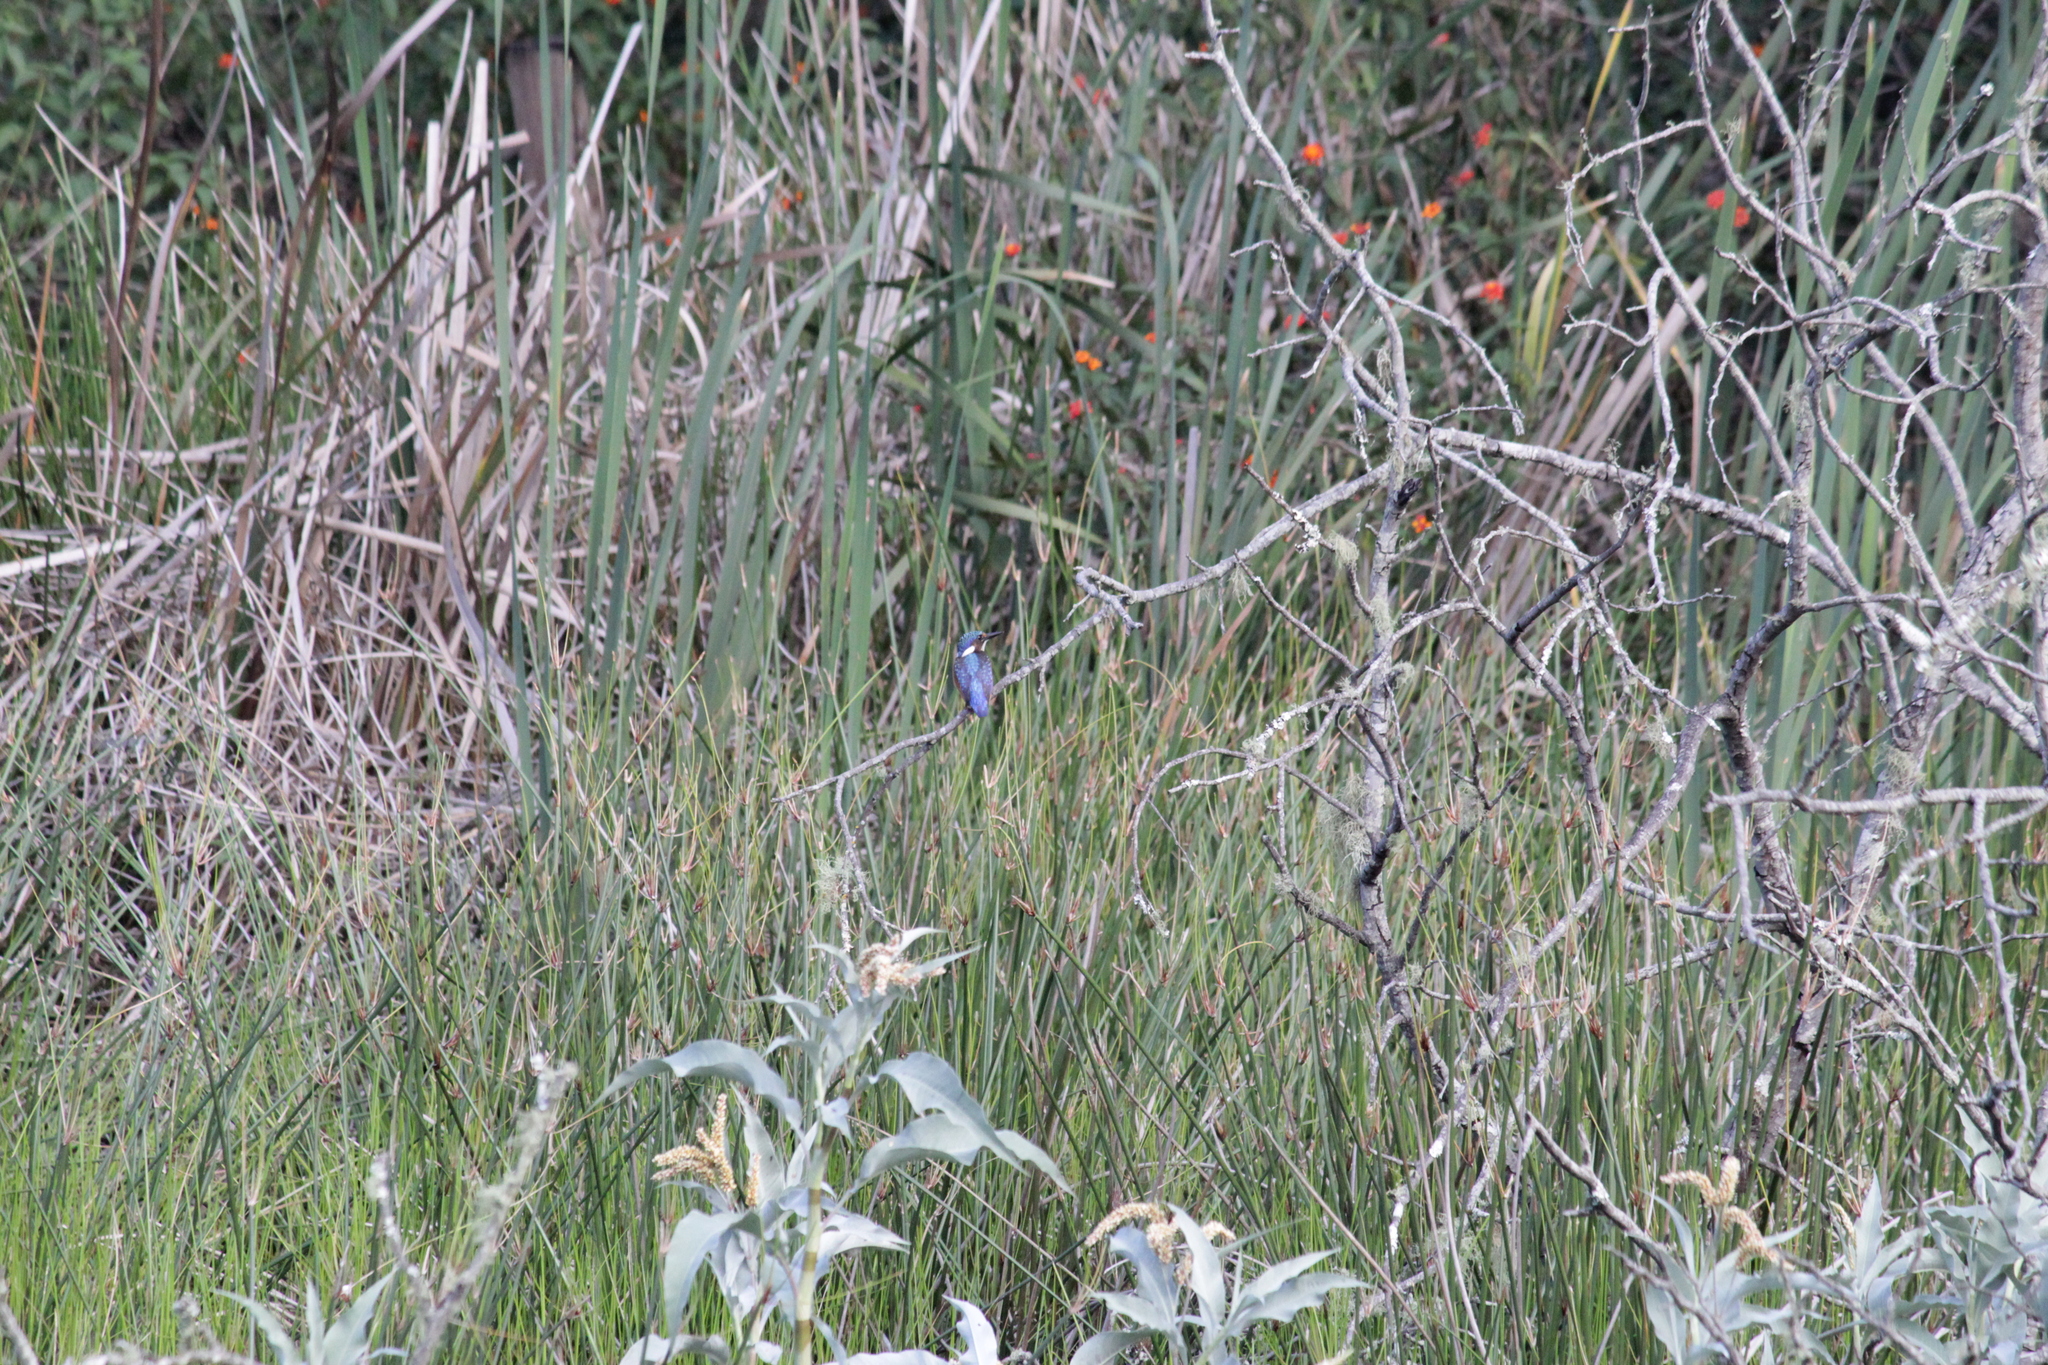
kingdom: Animalia
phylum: Chordata
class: Aves
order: Coraciiformes
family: Alcedinidae
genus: Corythornis
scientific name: Corythornis cristatus
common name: Malachite kingfisher
